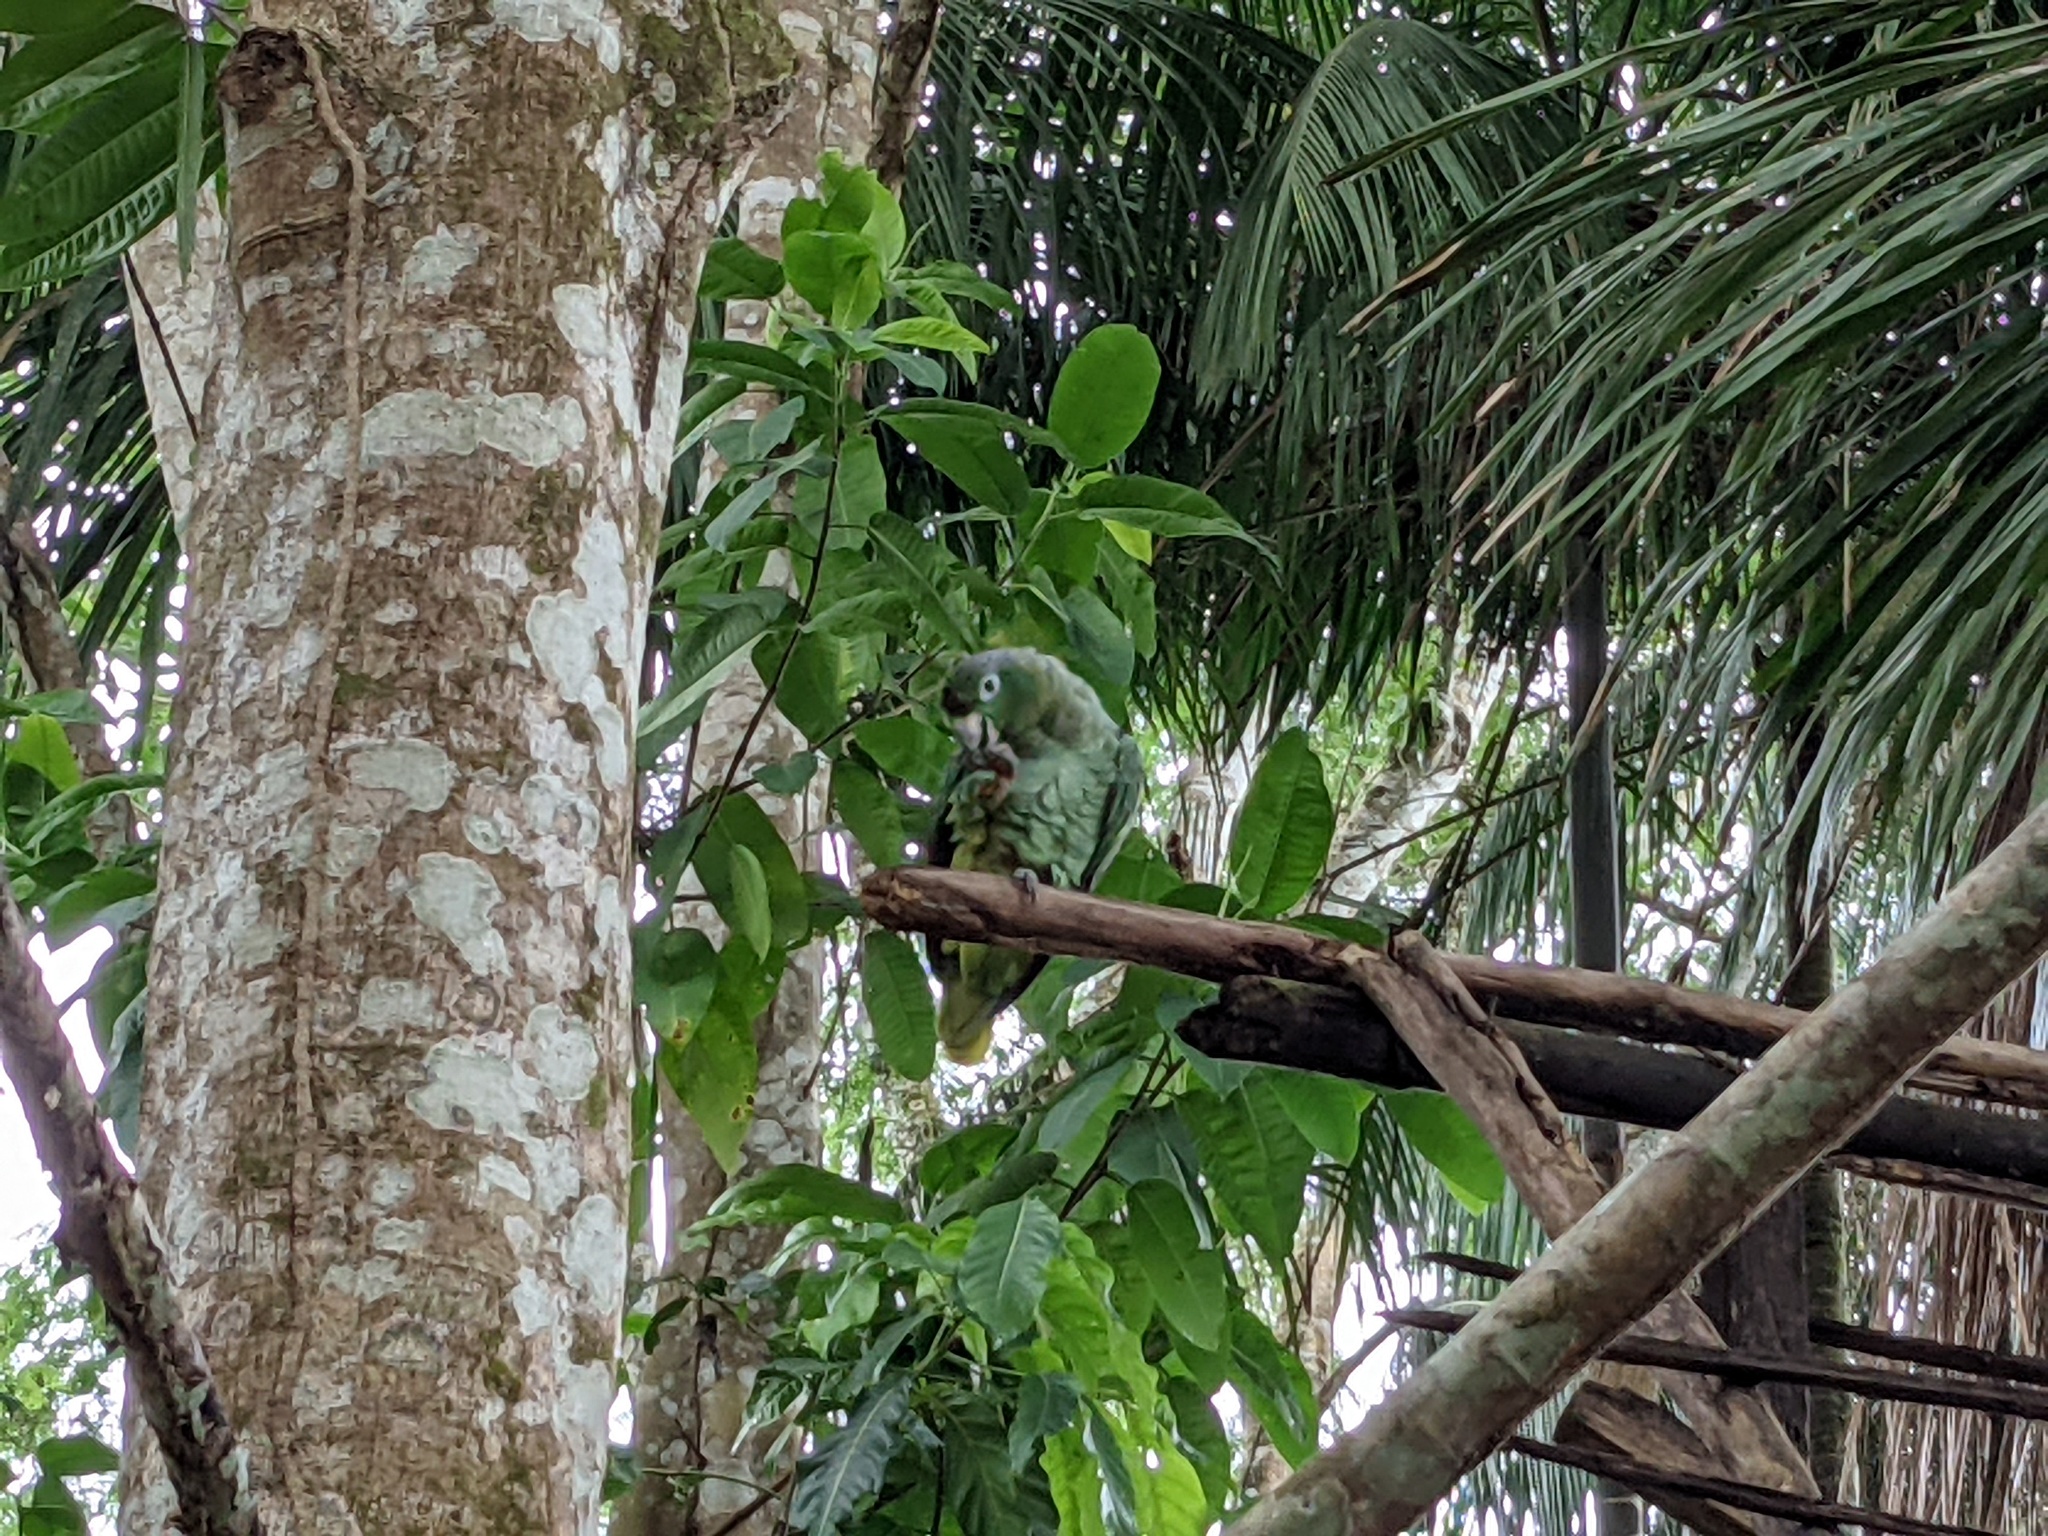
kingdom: Animalia
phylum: Chordata
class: Aves
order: Psittaciformes
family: Psittacidae
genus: Amazona
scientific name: Amazona farinosa
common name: Mealy parrot
